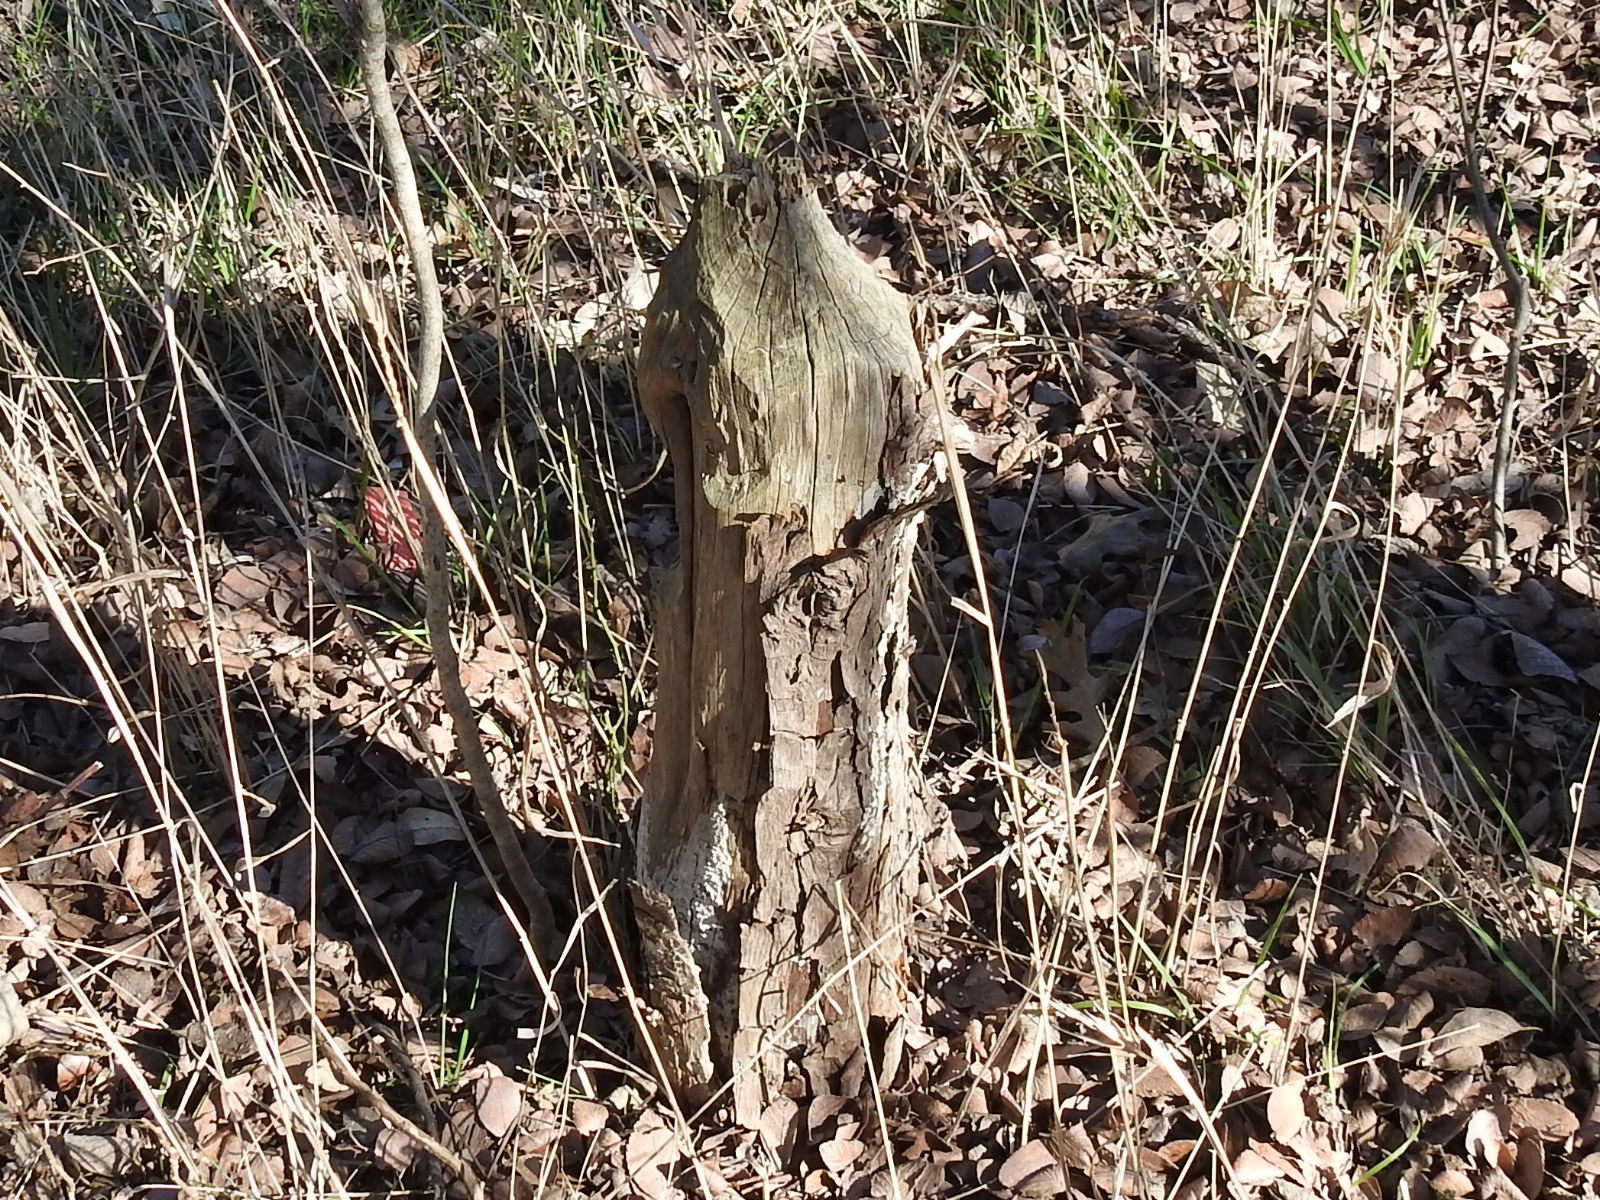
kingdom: Animalia
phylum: Chordata
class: Mammalia
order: Rodentia
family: Castoridae
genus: Castor
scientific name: Castor canadensis
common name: American beaver
